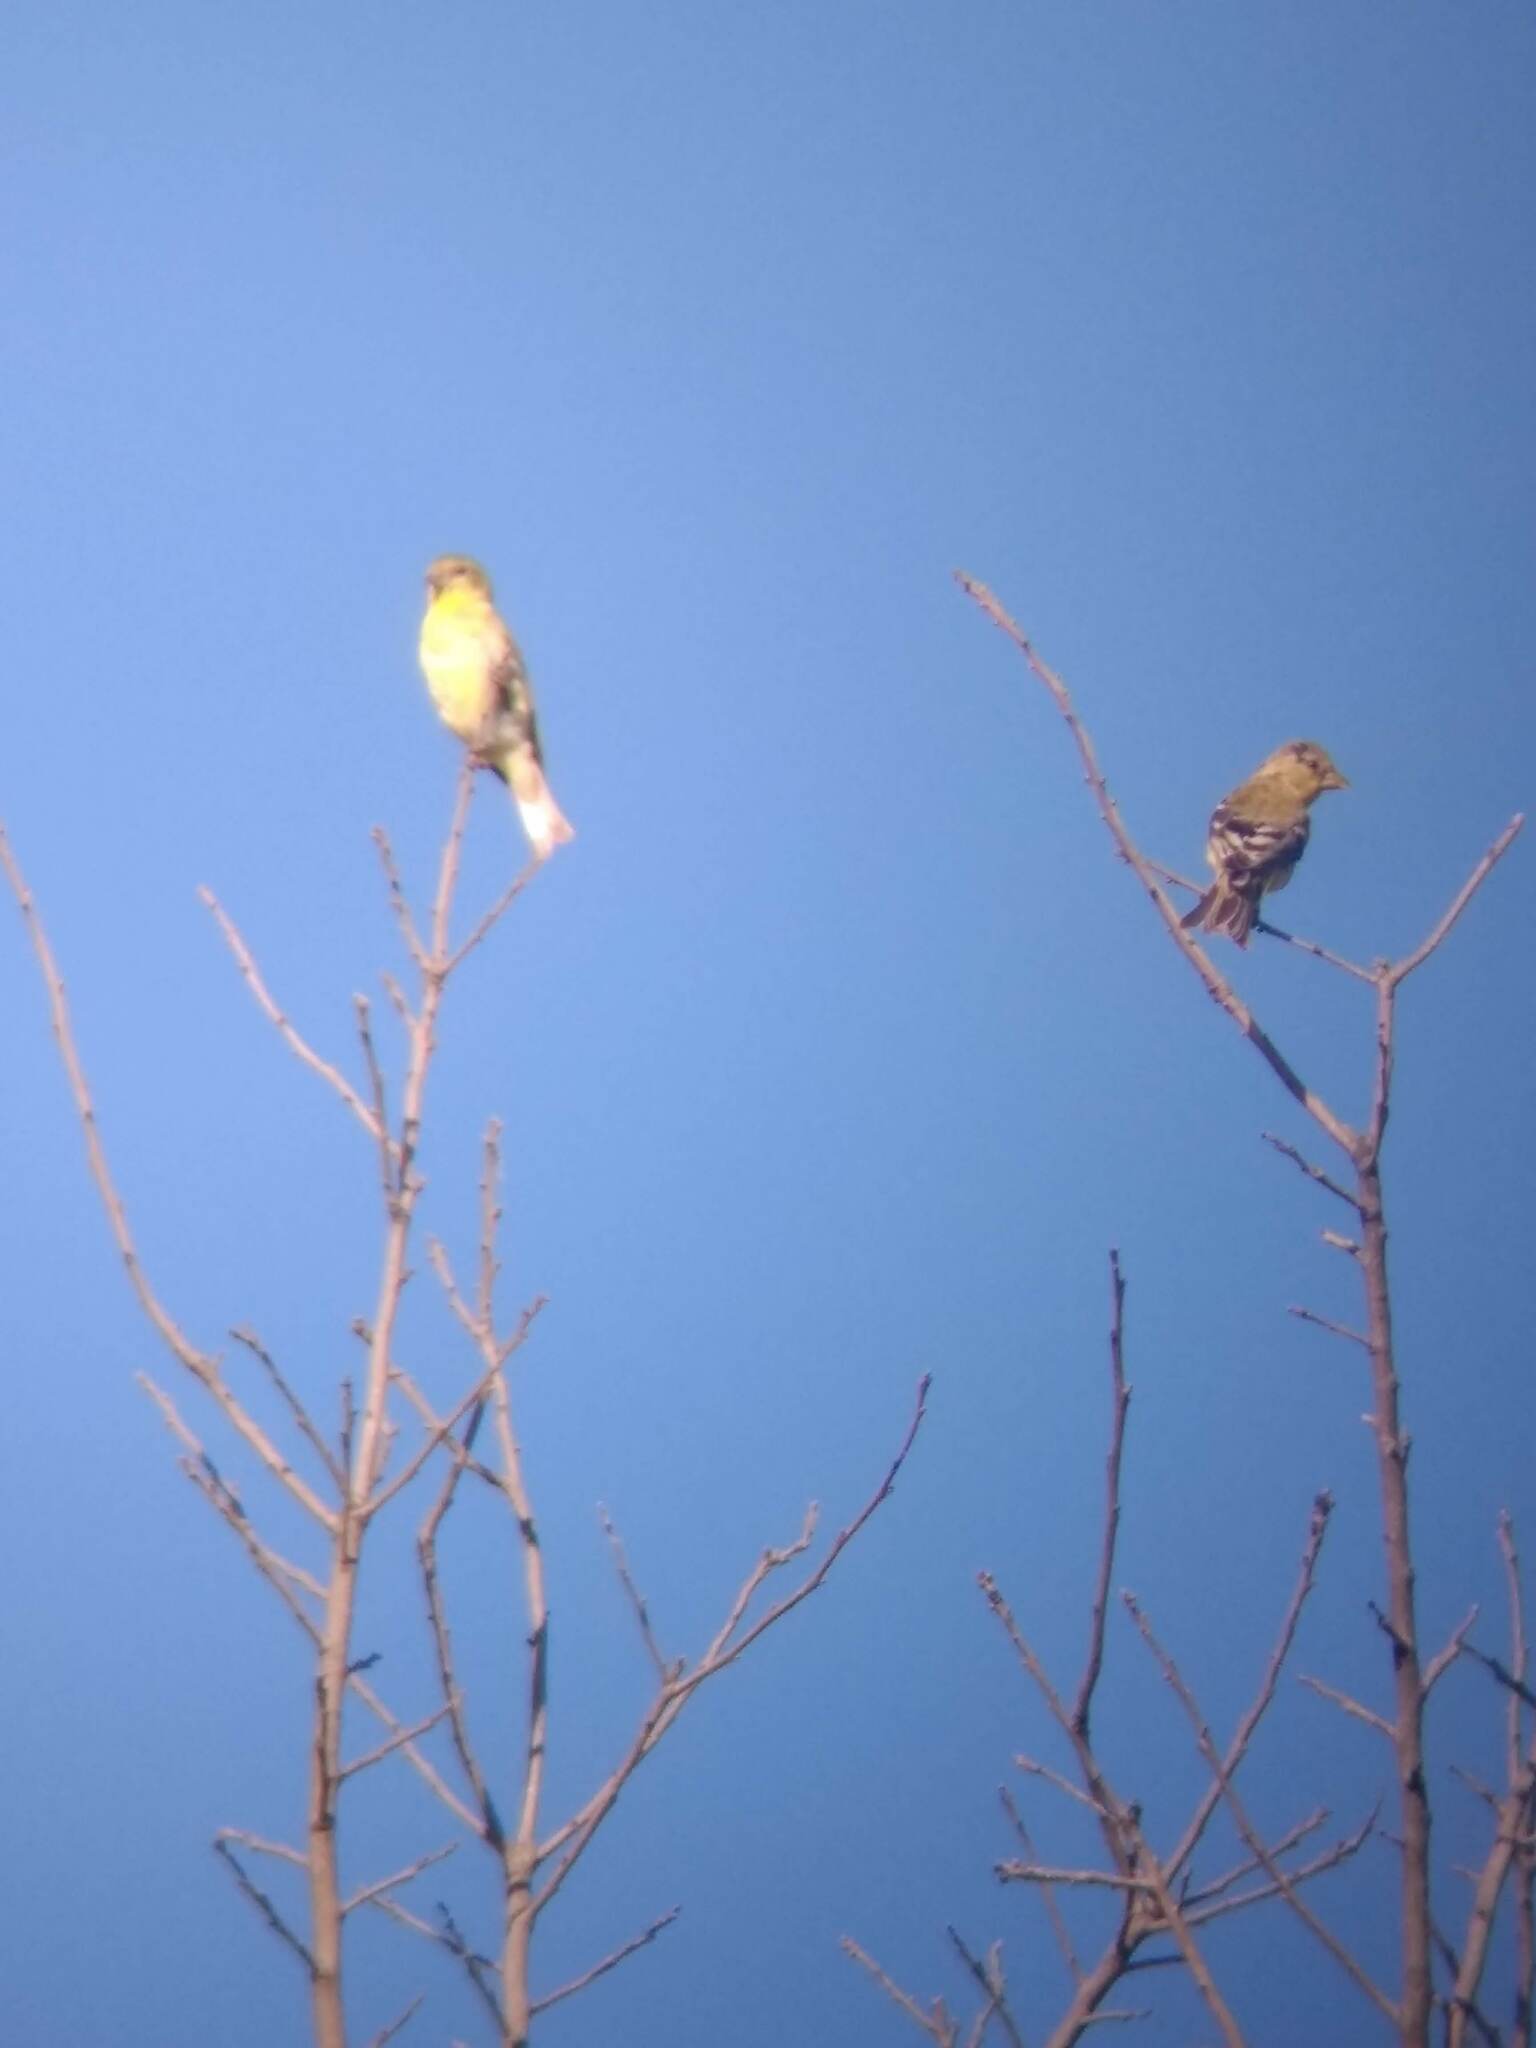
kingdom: Animalia
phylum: Chordata
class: Aves
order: Passeriformes
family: Fringillidae
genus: Spinus
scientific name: Spinus psaltria
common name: Lesser goldfinch
